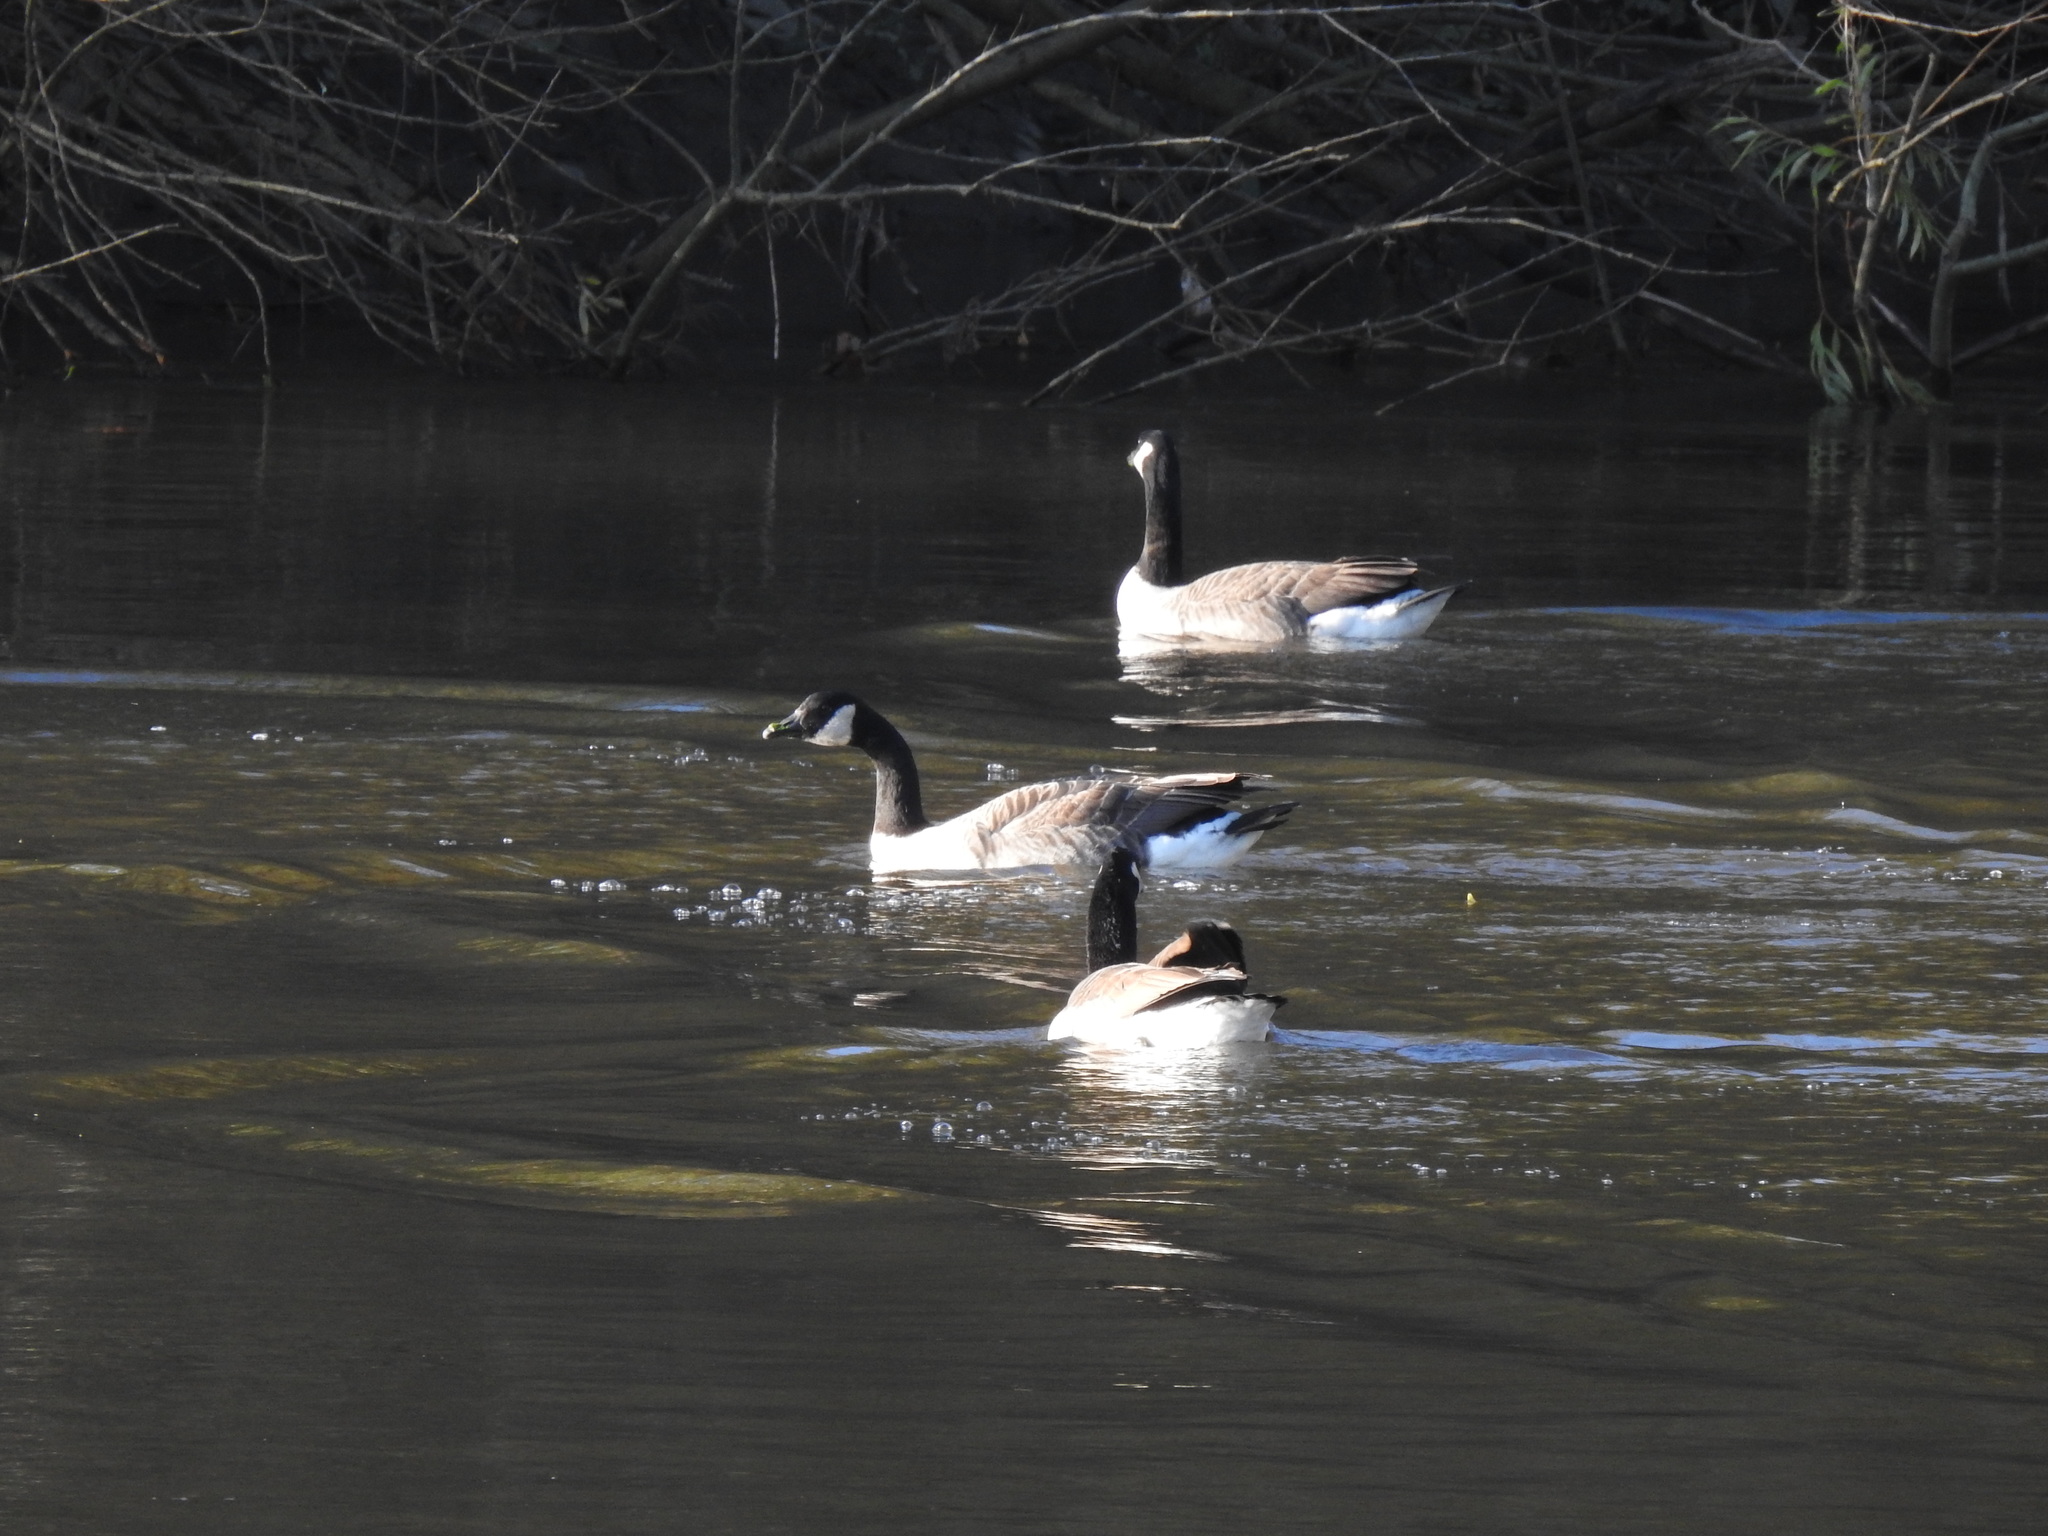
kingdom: Animalia
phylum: Chordata
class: Aves
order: Anseriformes
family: Anatidae
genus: Branta
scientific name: Branta canadensis
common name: Canada goose
